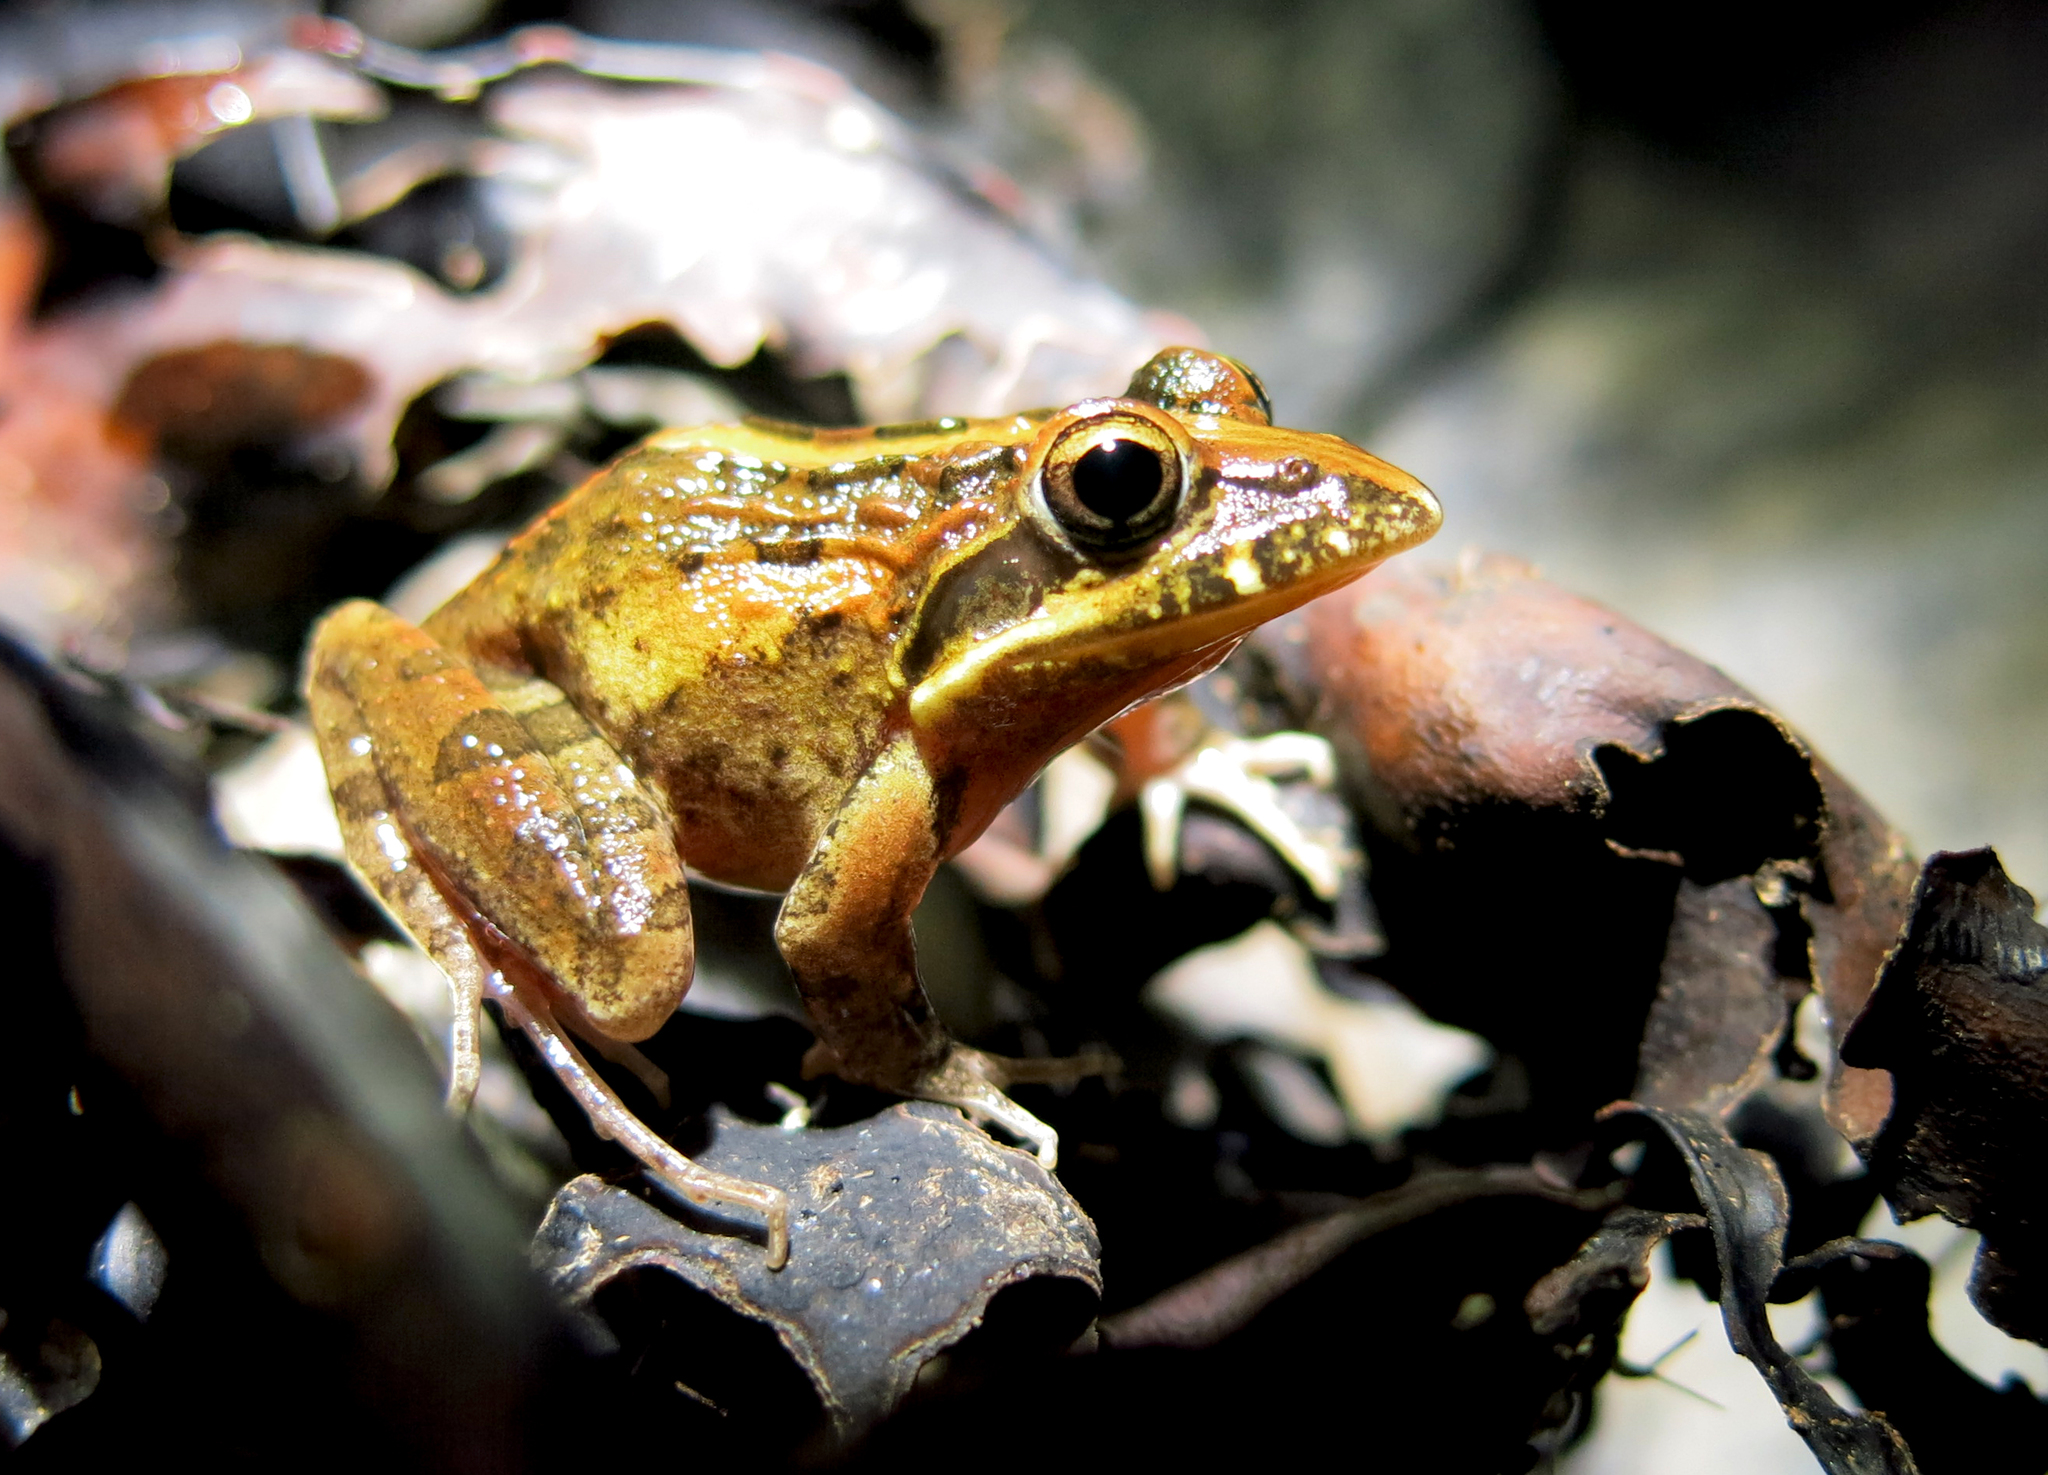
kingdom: Animalia
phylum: Chordata
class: Amphibia
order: Anura
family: Pyxicephalidae
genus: Strongylopus
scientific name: Strongylopus grayii
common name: Gray's stream frog
